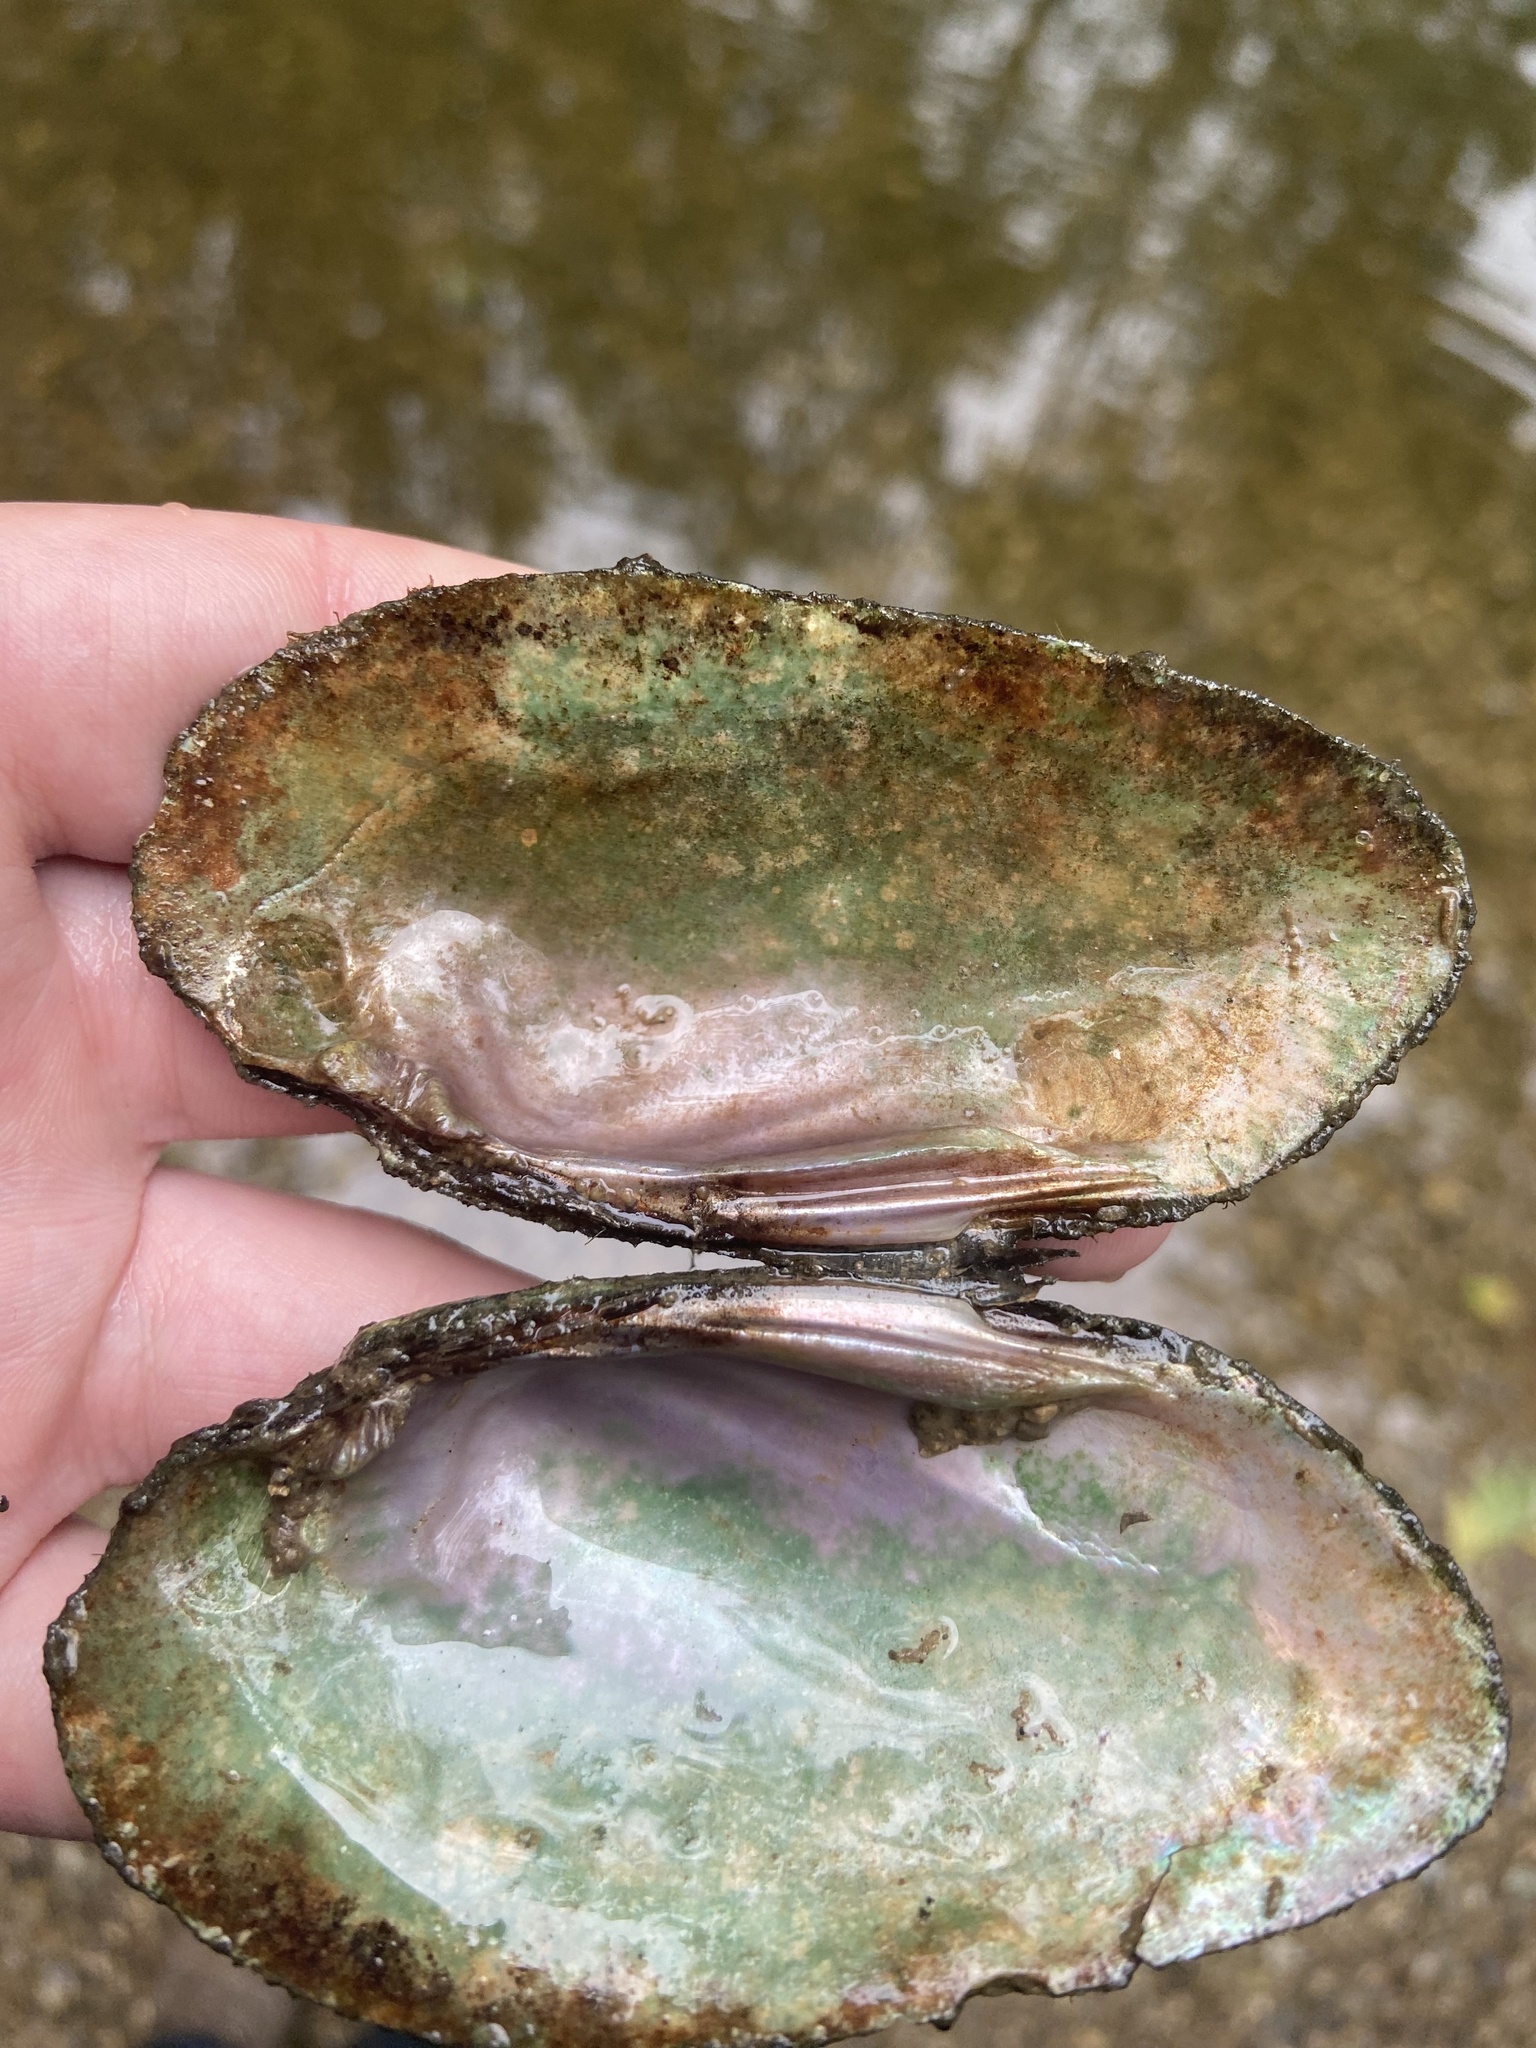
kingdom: Animalia
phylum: Mollusca
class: Bivalvia
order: Unionida
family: Unionidae
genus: Eurynia
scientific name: Eurynia dilatata
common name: Spike
